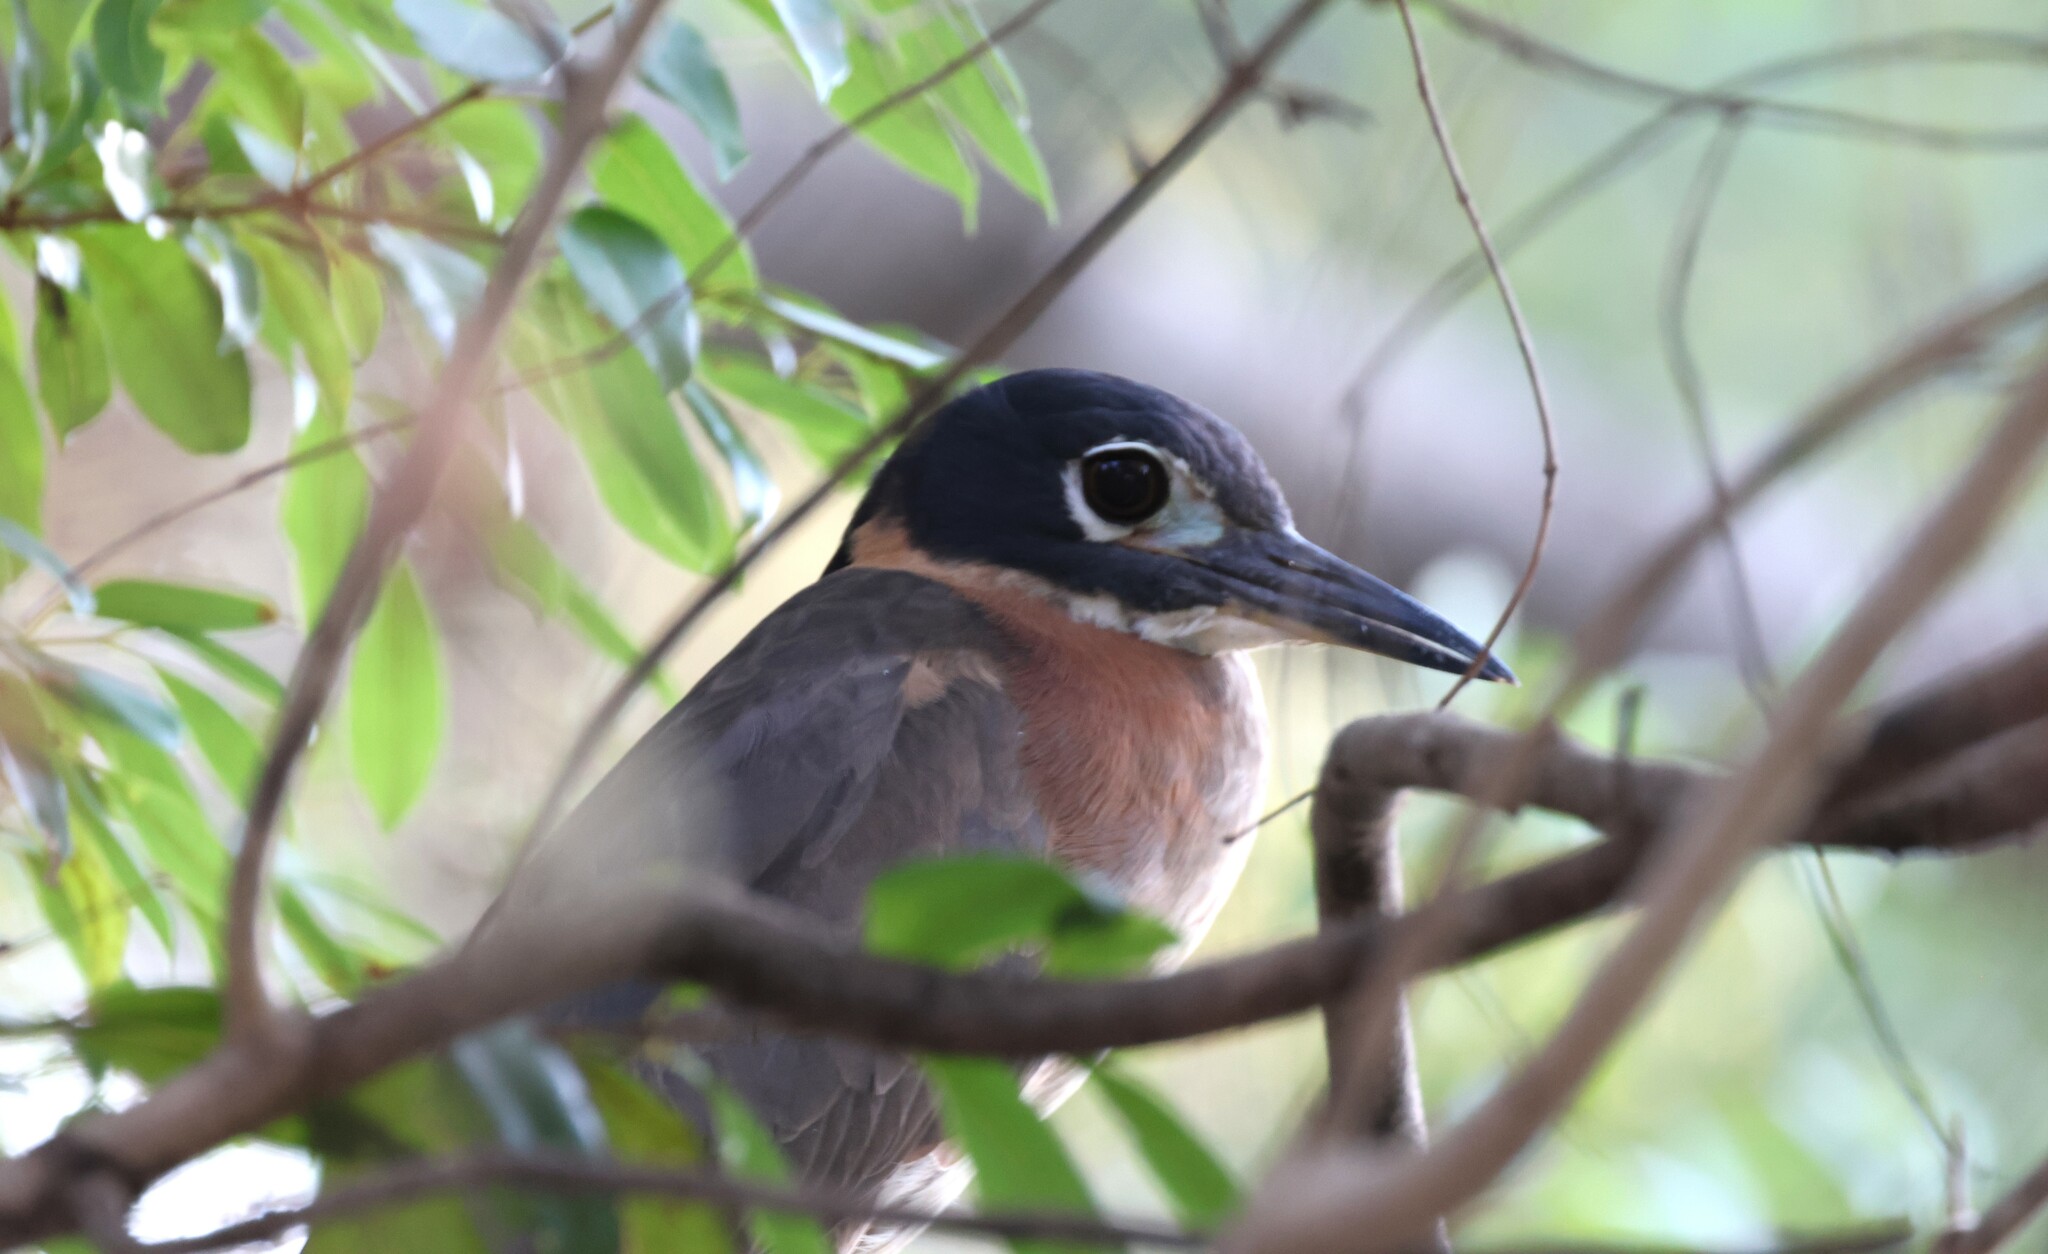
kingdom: Animalia
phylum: Chordata
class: Aves
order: Pelecaniformes
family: Ardeidae
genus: Gorsachius
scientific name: Gorsachius leuconotus
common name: White-backed night heron
